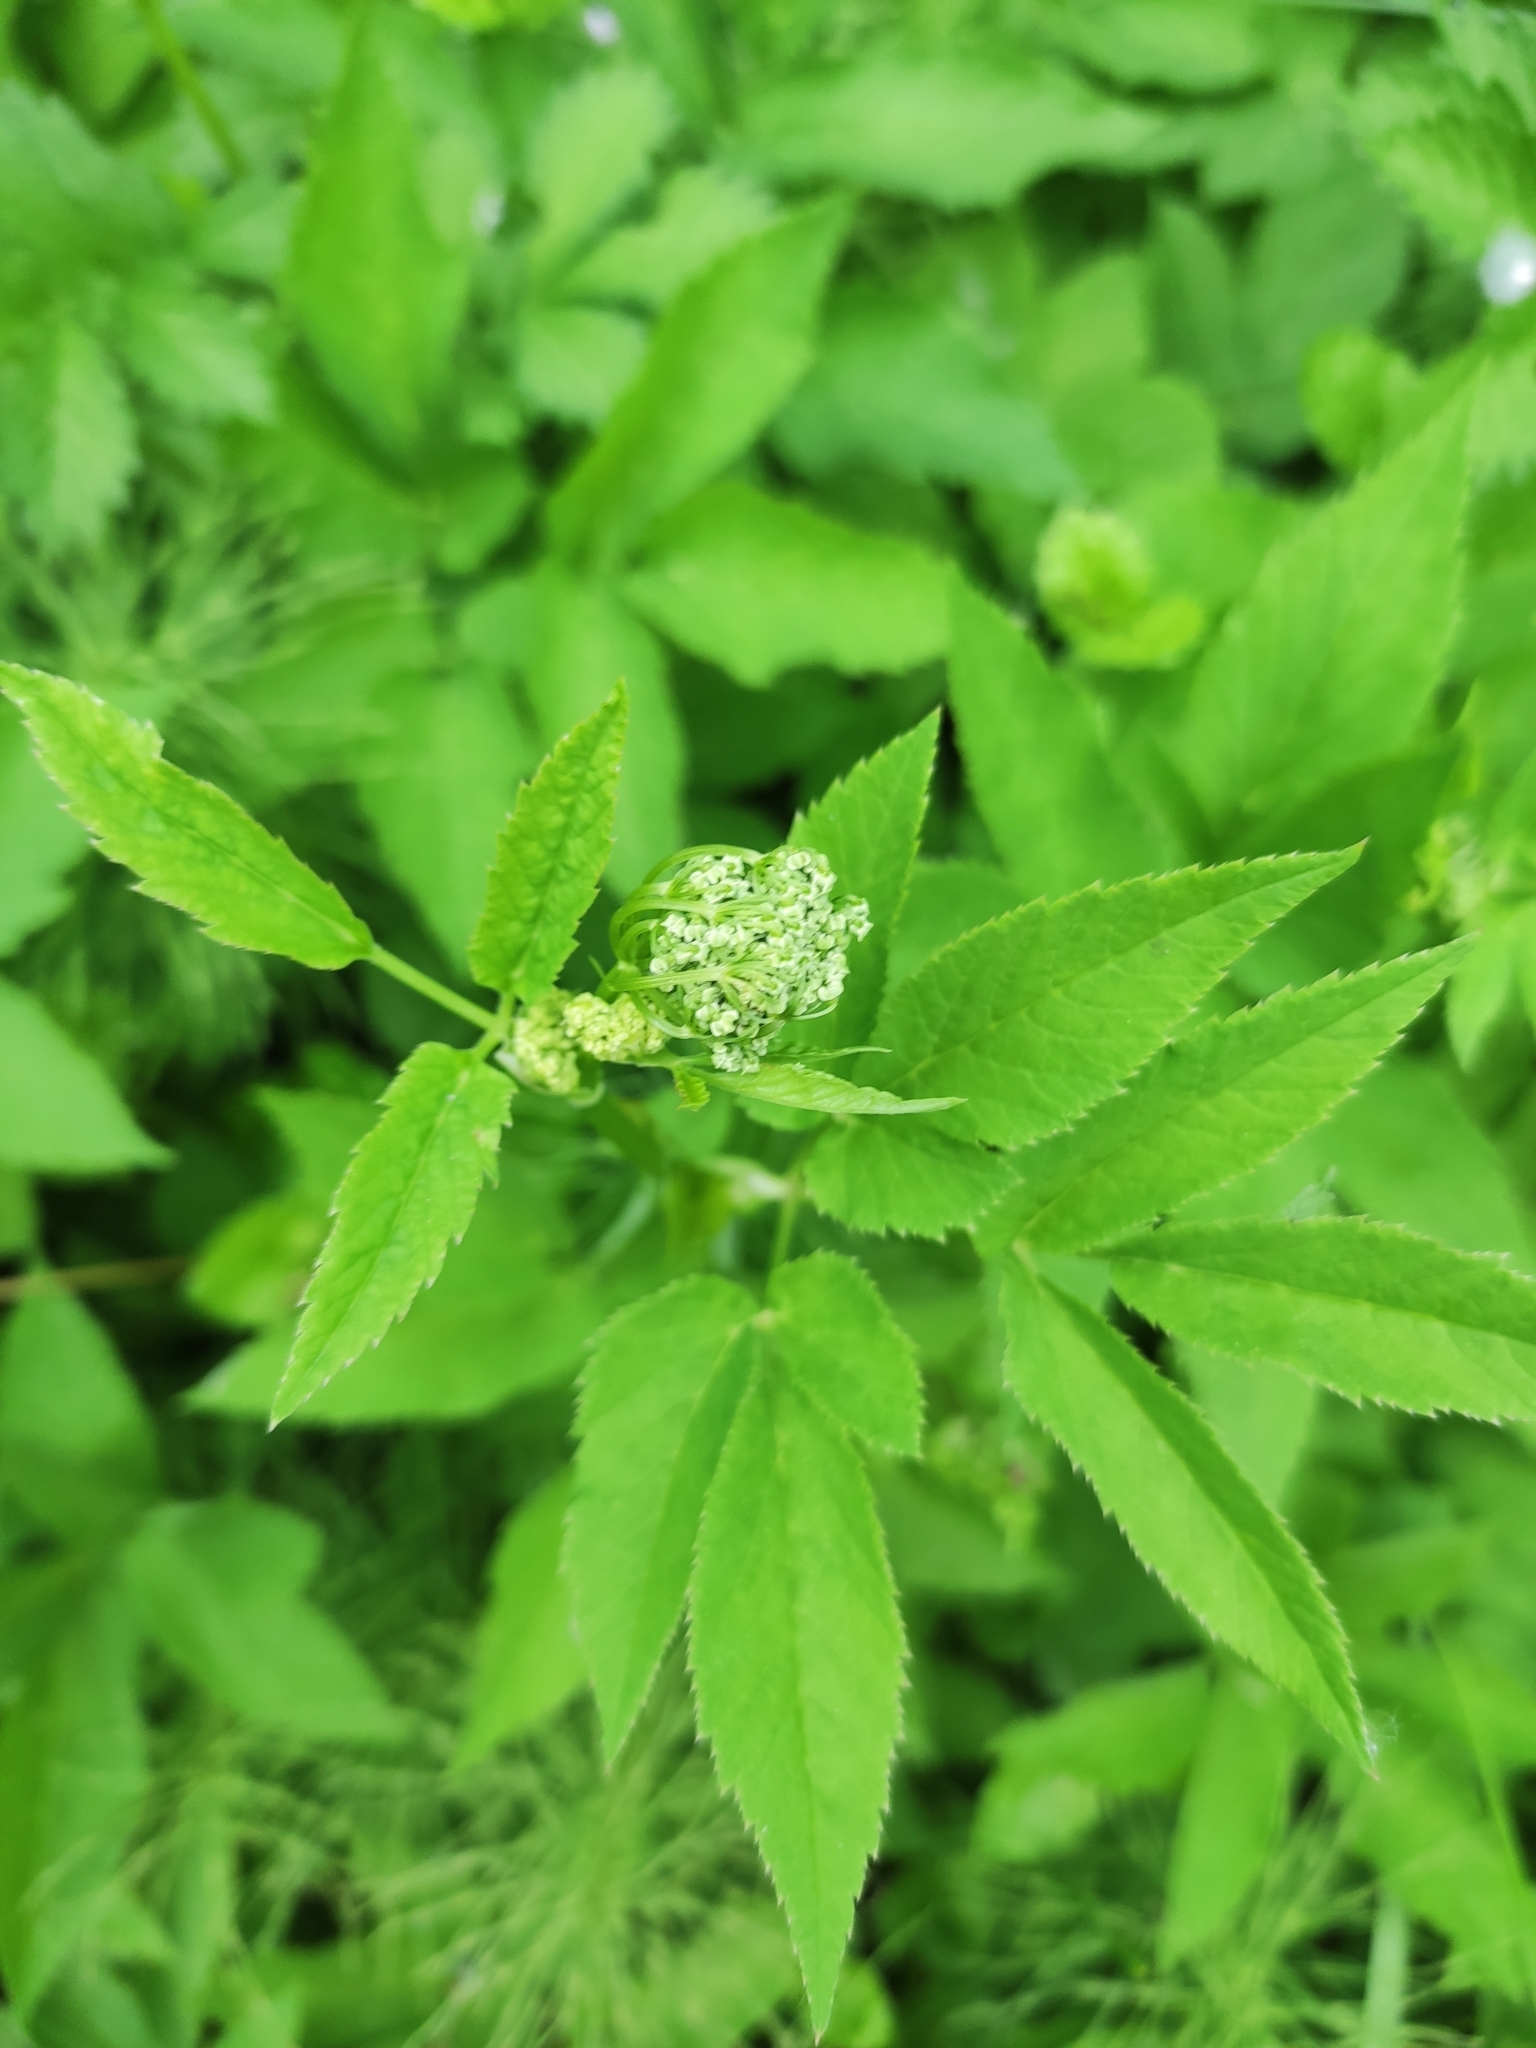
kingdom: Plantae
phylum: Tracheophyta
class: Magnoliopsida
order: Apiales
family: Apiaceae
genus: Aegopodium
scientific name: Aegopodium podagraria
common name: Ground-elder
